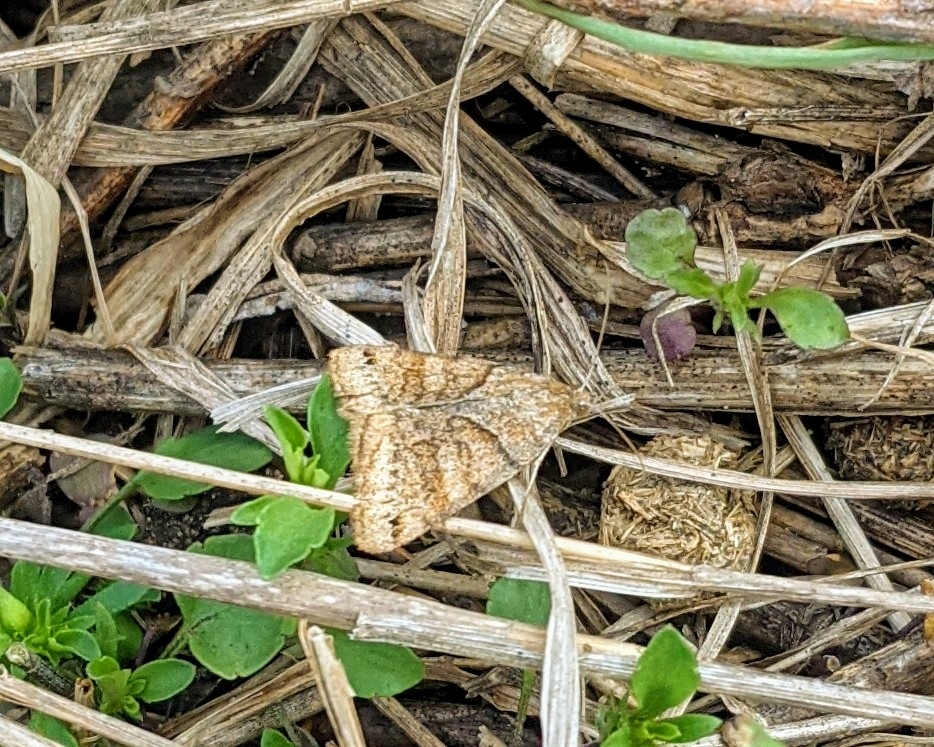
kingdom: Animalia
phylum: Arthropoda
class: Insecta
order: Lepidoptera
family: Erebidae
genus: Caenurgina
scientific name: Caenurgina crassiuscula
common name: Double-barred
